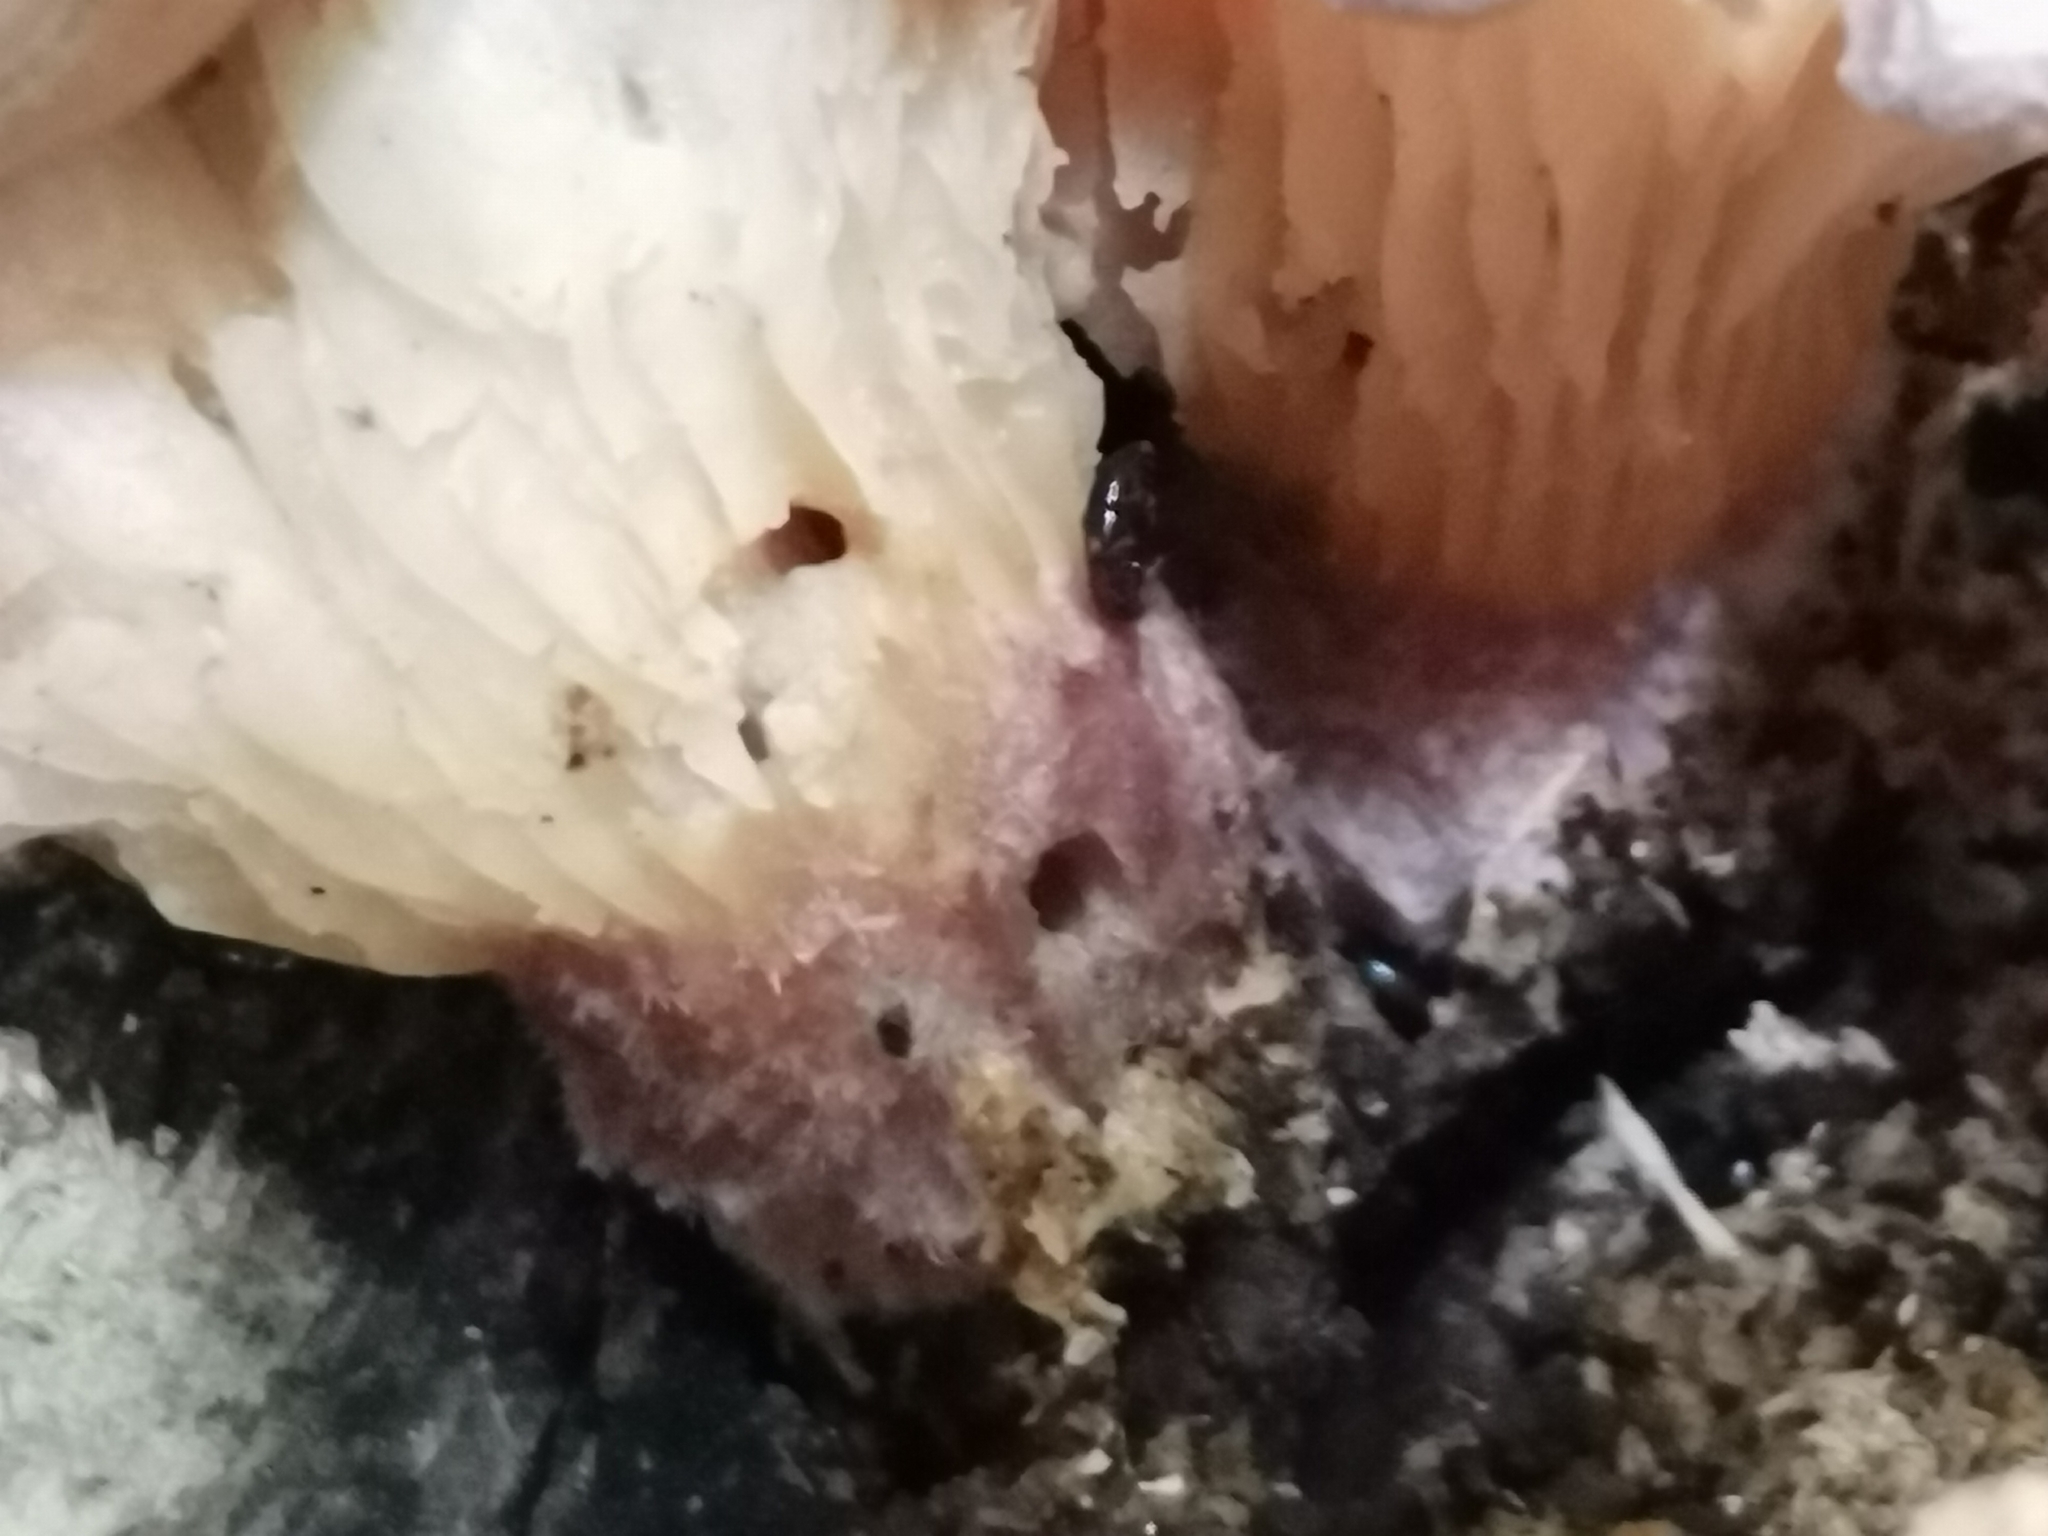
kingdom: Fungi
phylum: Basidiomycota
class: Agaricomycetes
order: Polyporales
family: Panaceae
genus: Panus
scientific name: Panus conchatus
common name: Lilac oysterling
